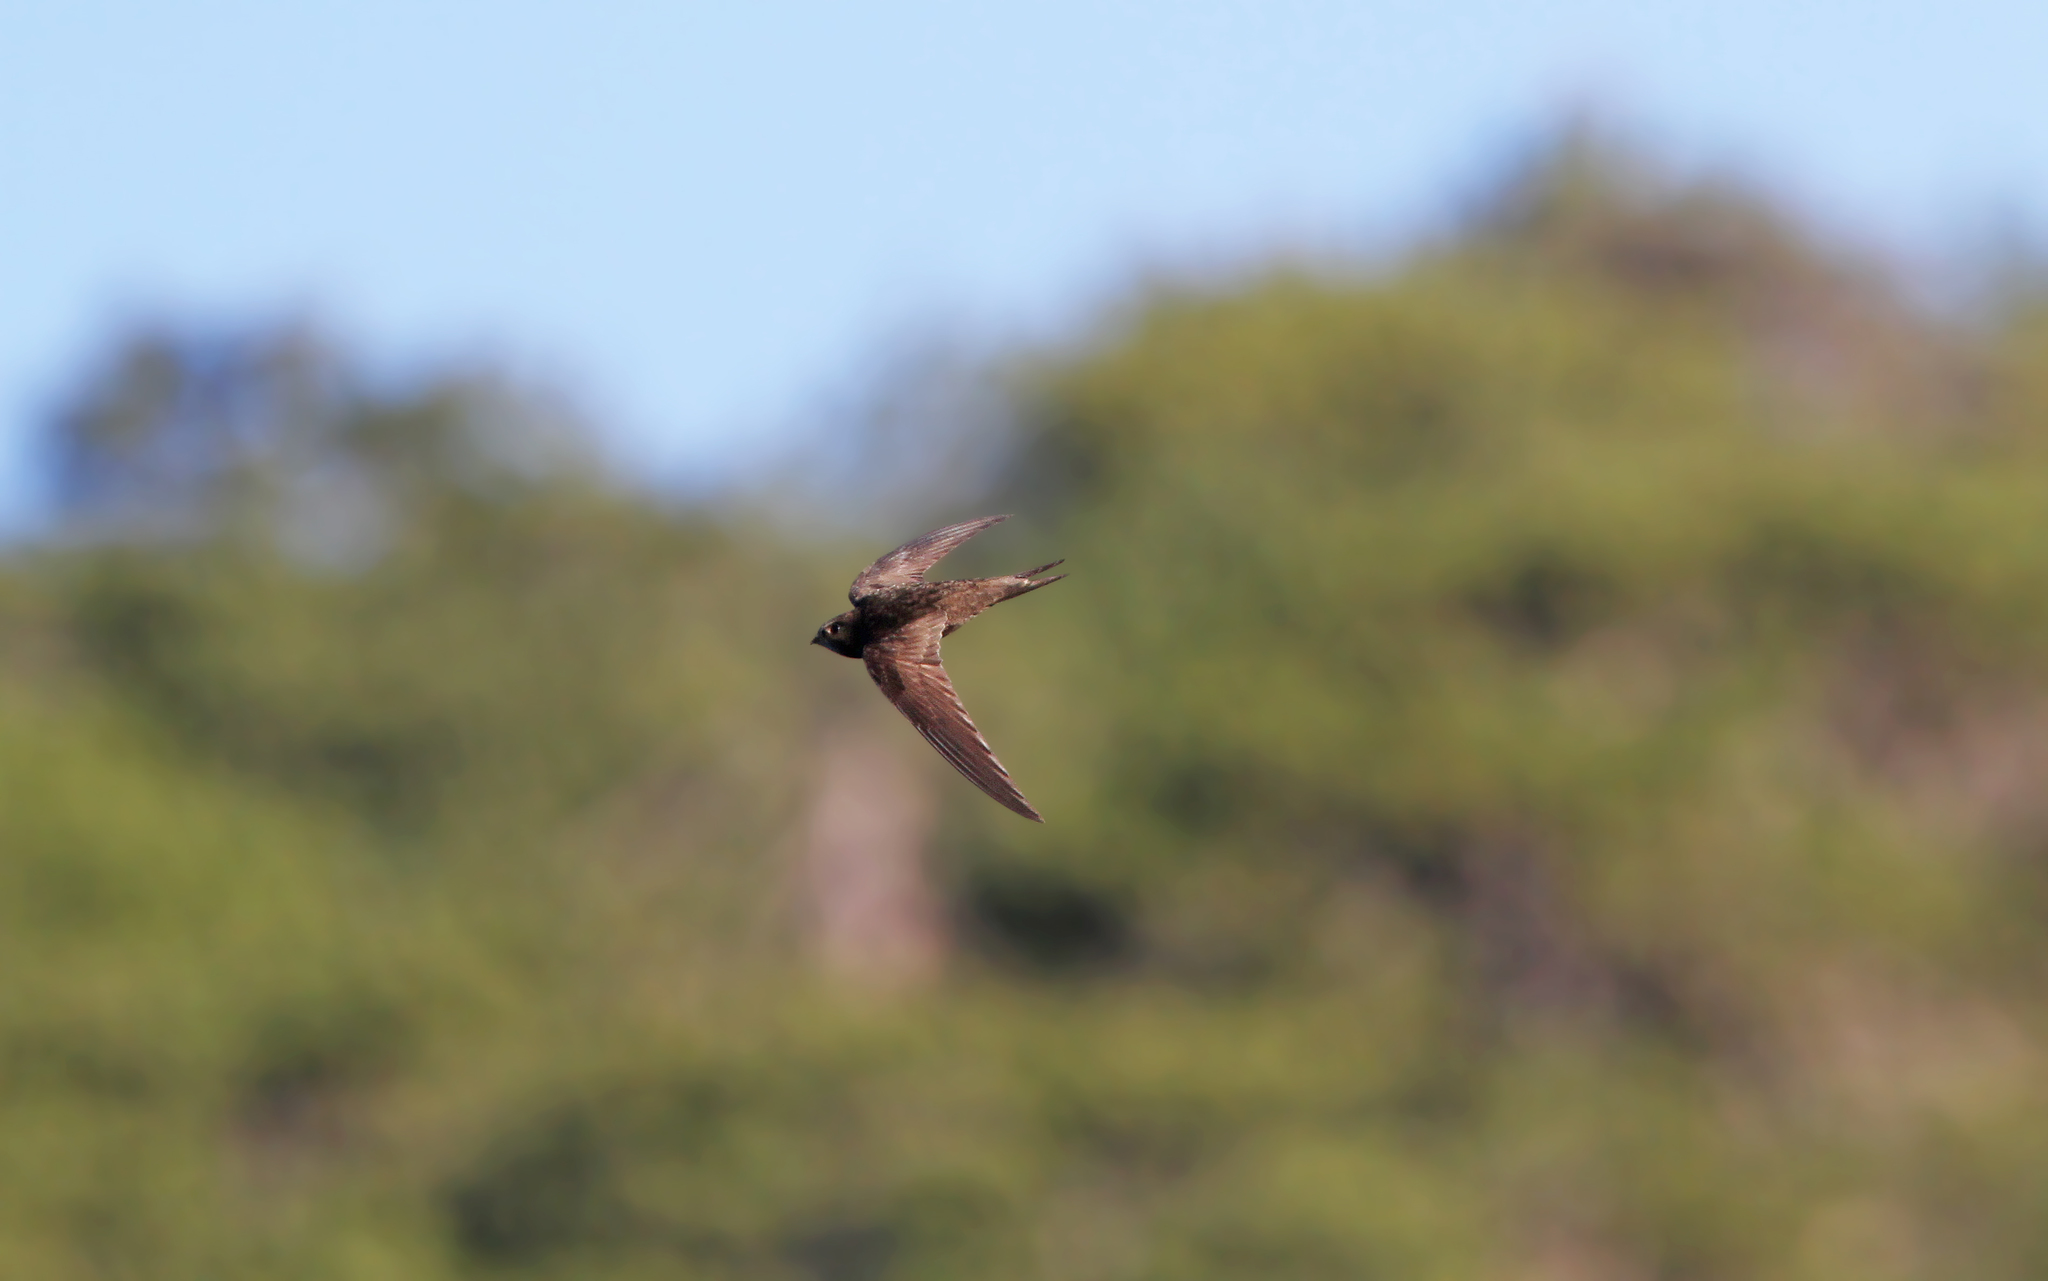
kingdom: Animalia
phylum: Chordata
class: Aves
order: Apodiformes
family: Apodidae
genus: Apus
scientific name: Apus pallidus
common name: Pallid swift
